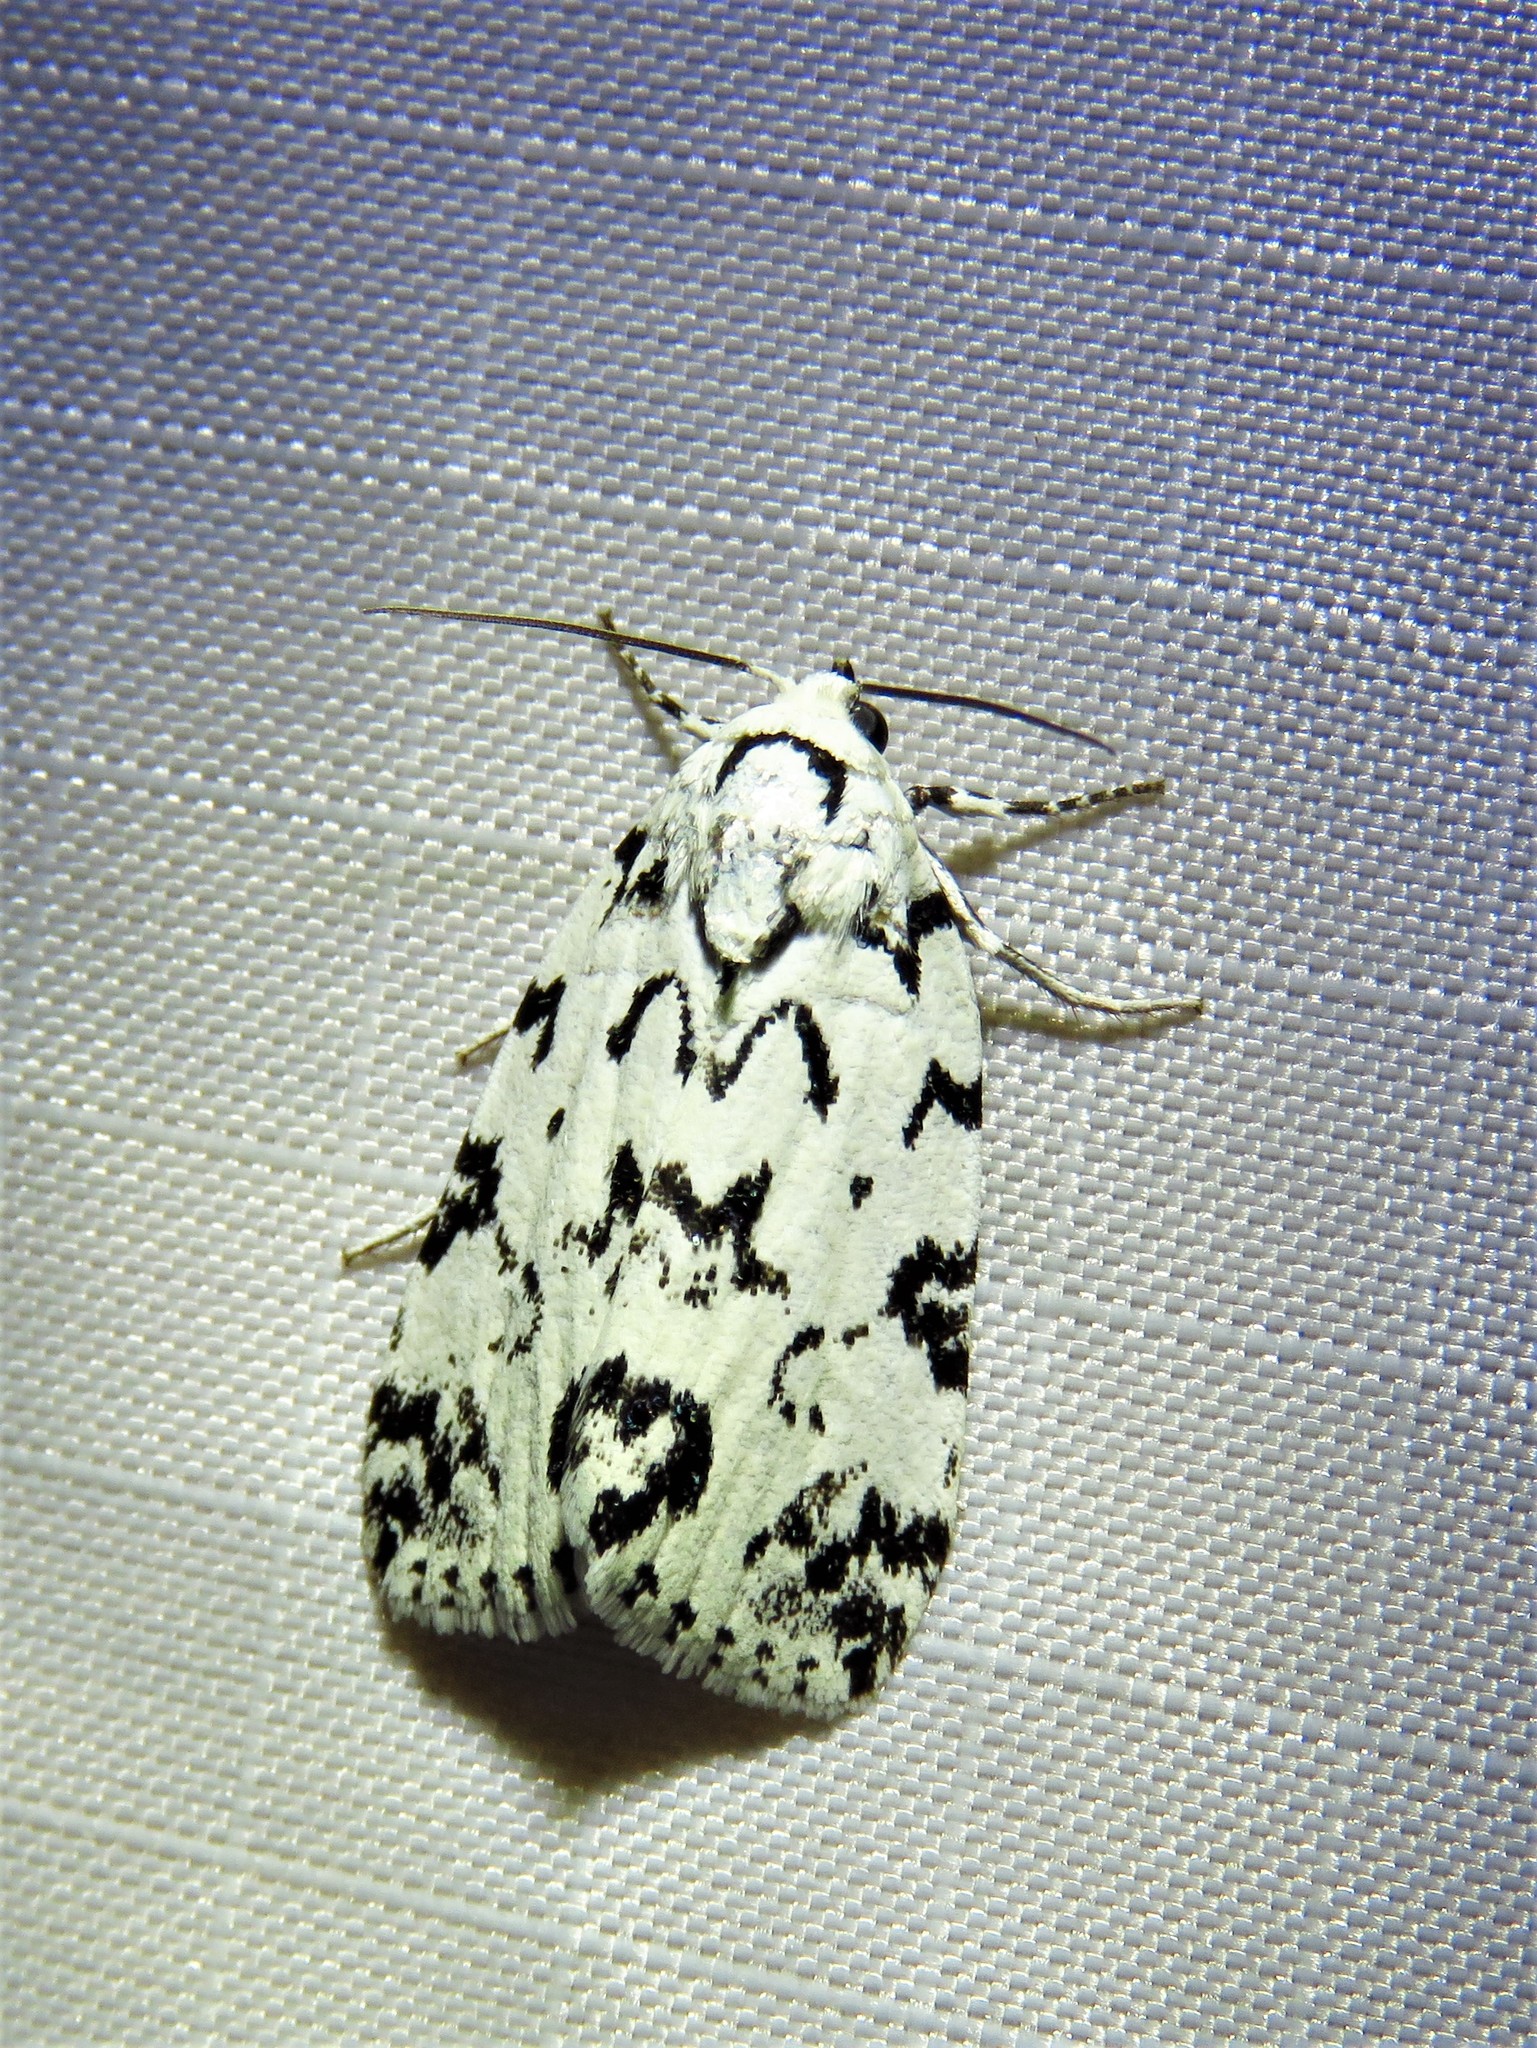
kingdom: Animalia
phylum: Arthropoda
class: Insecta
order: Lepidoptera
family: Noctuidae
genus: Polygrammate
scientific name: Polygrammate hebraeicum
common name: Hebrew moth
